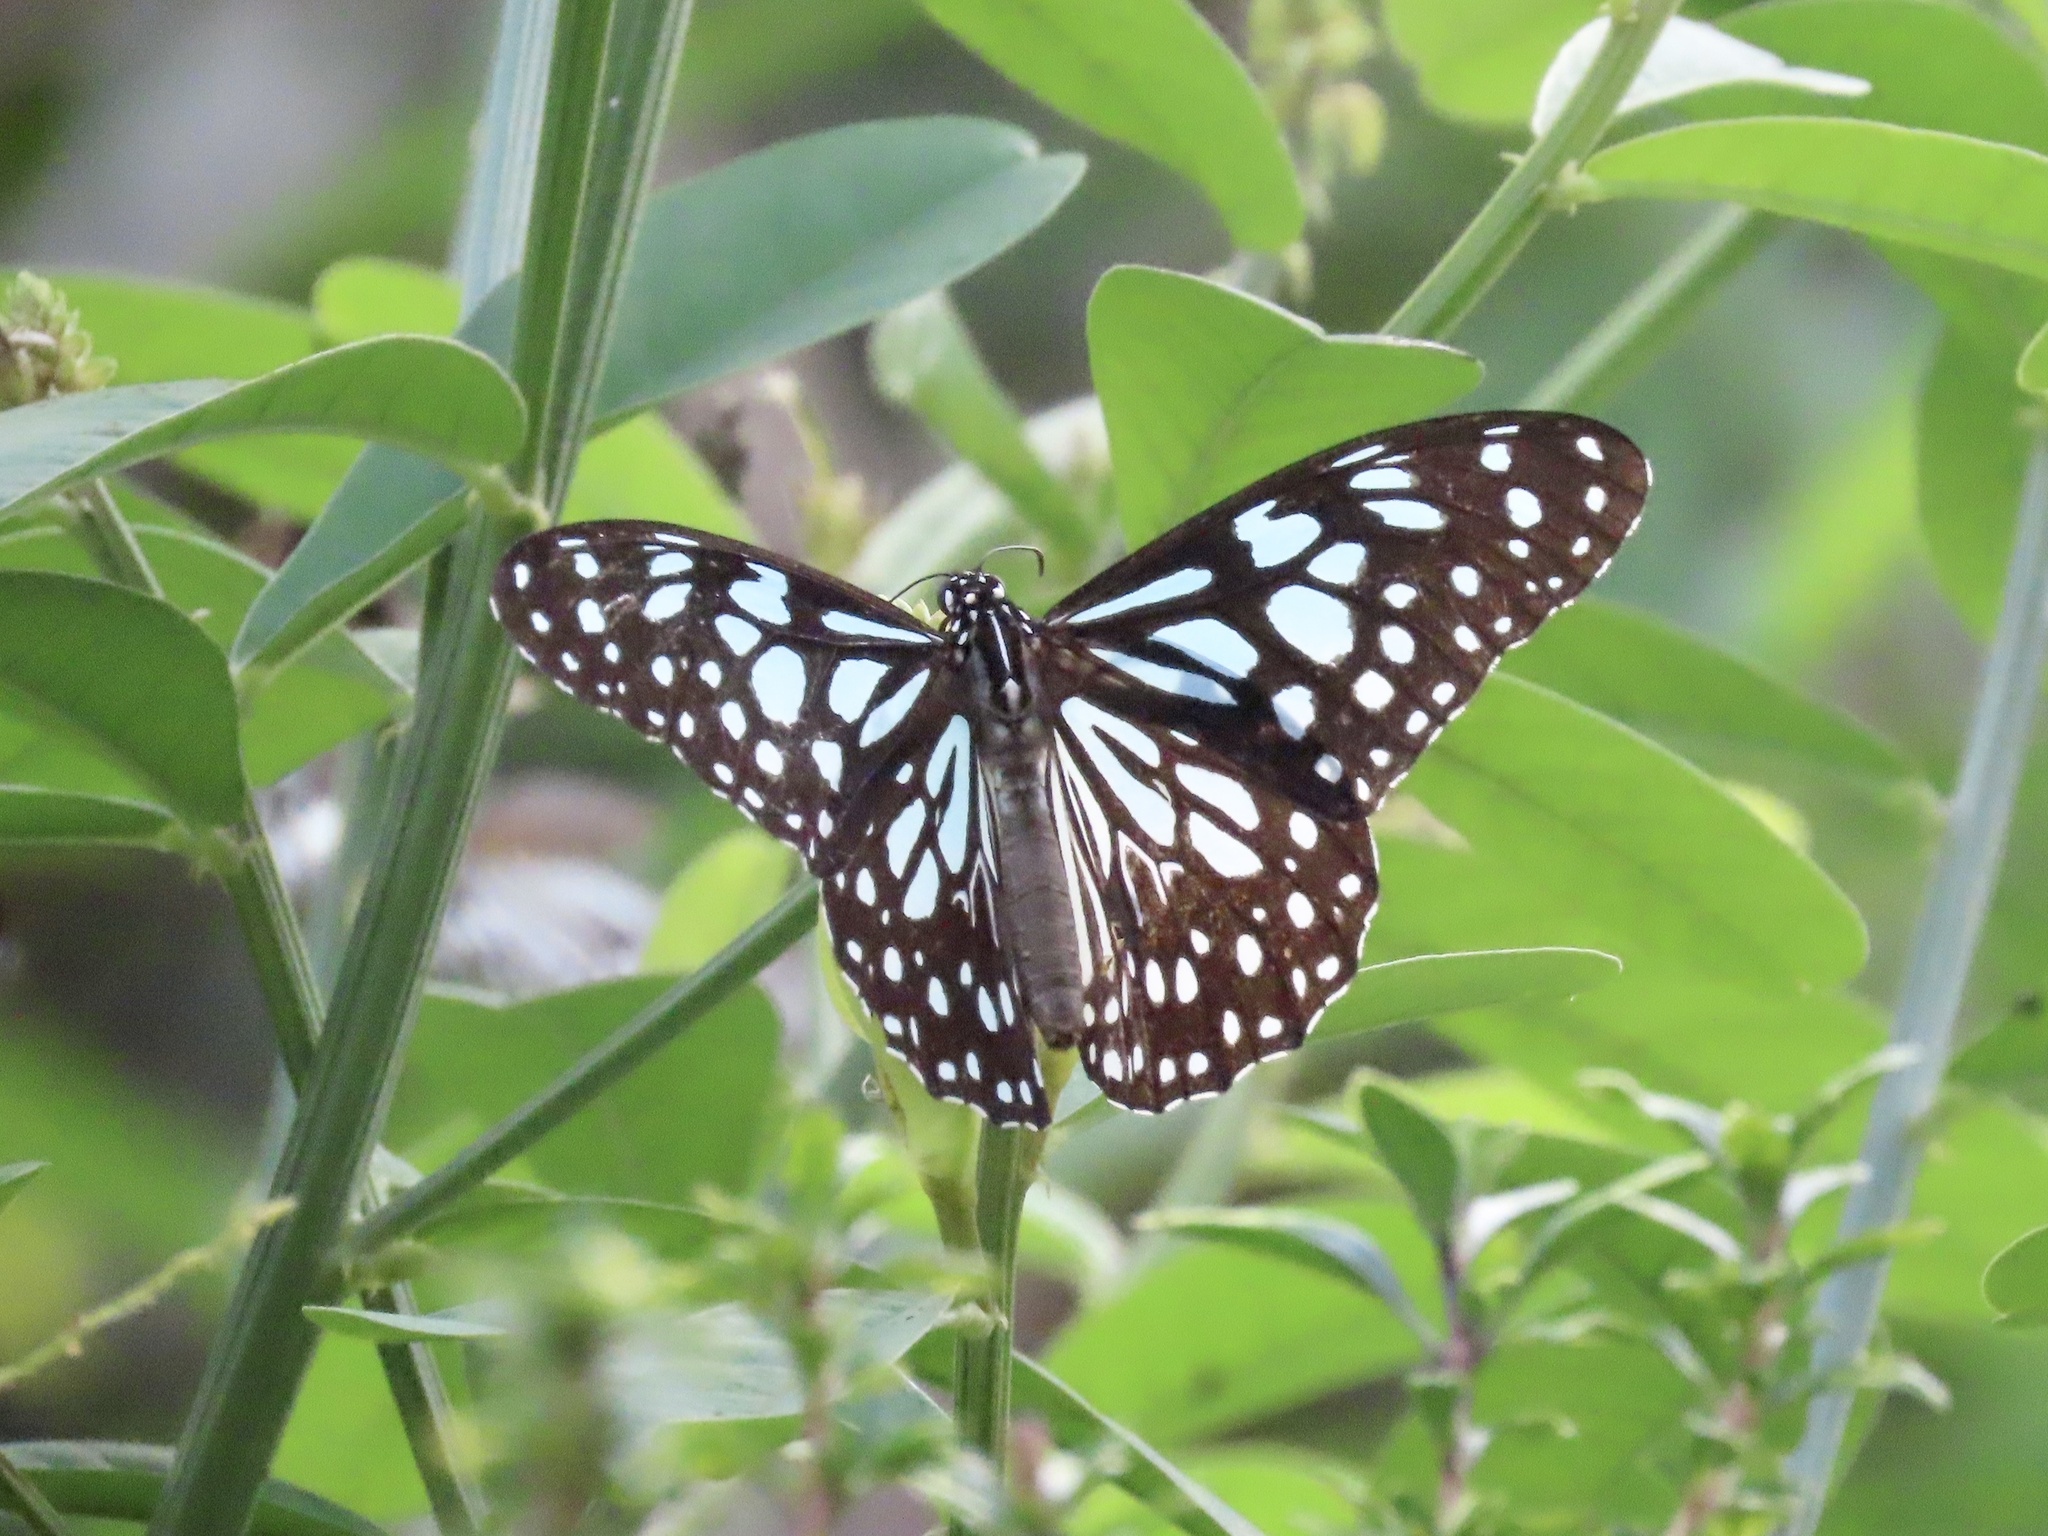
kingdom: Animalia
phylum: Arthropoda
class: Insecta
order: Lepidoptera
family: Nymphalidae
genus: Tirumala
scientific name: Tirumala limniace
